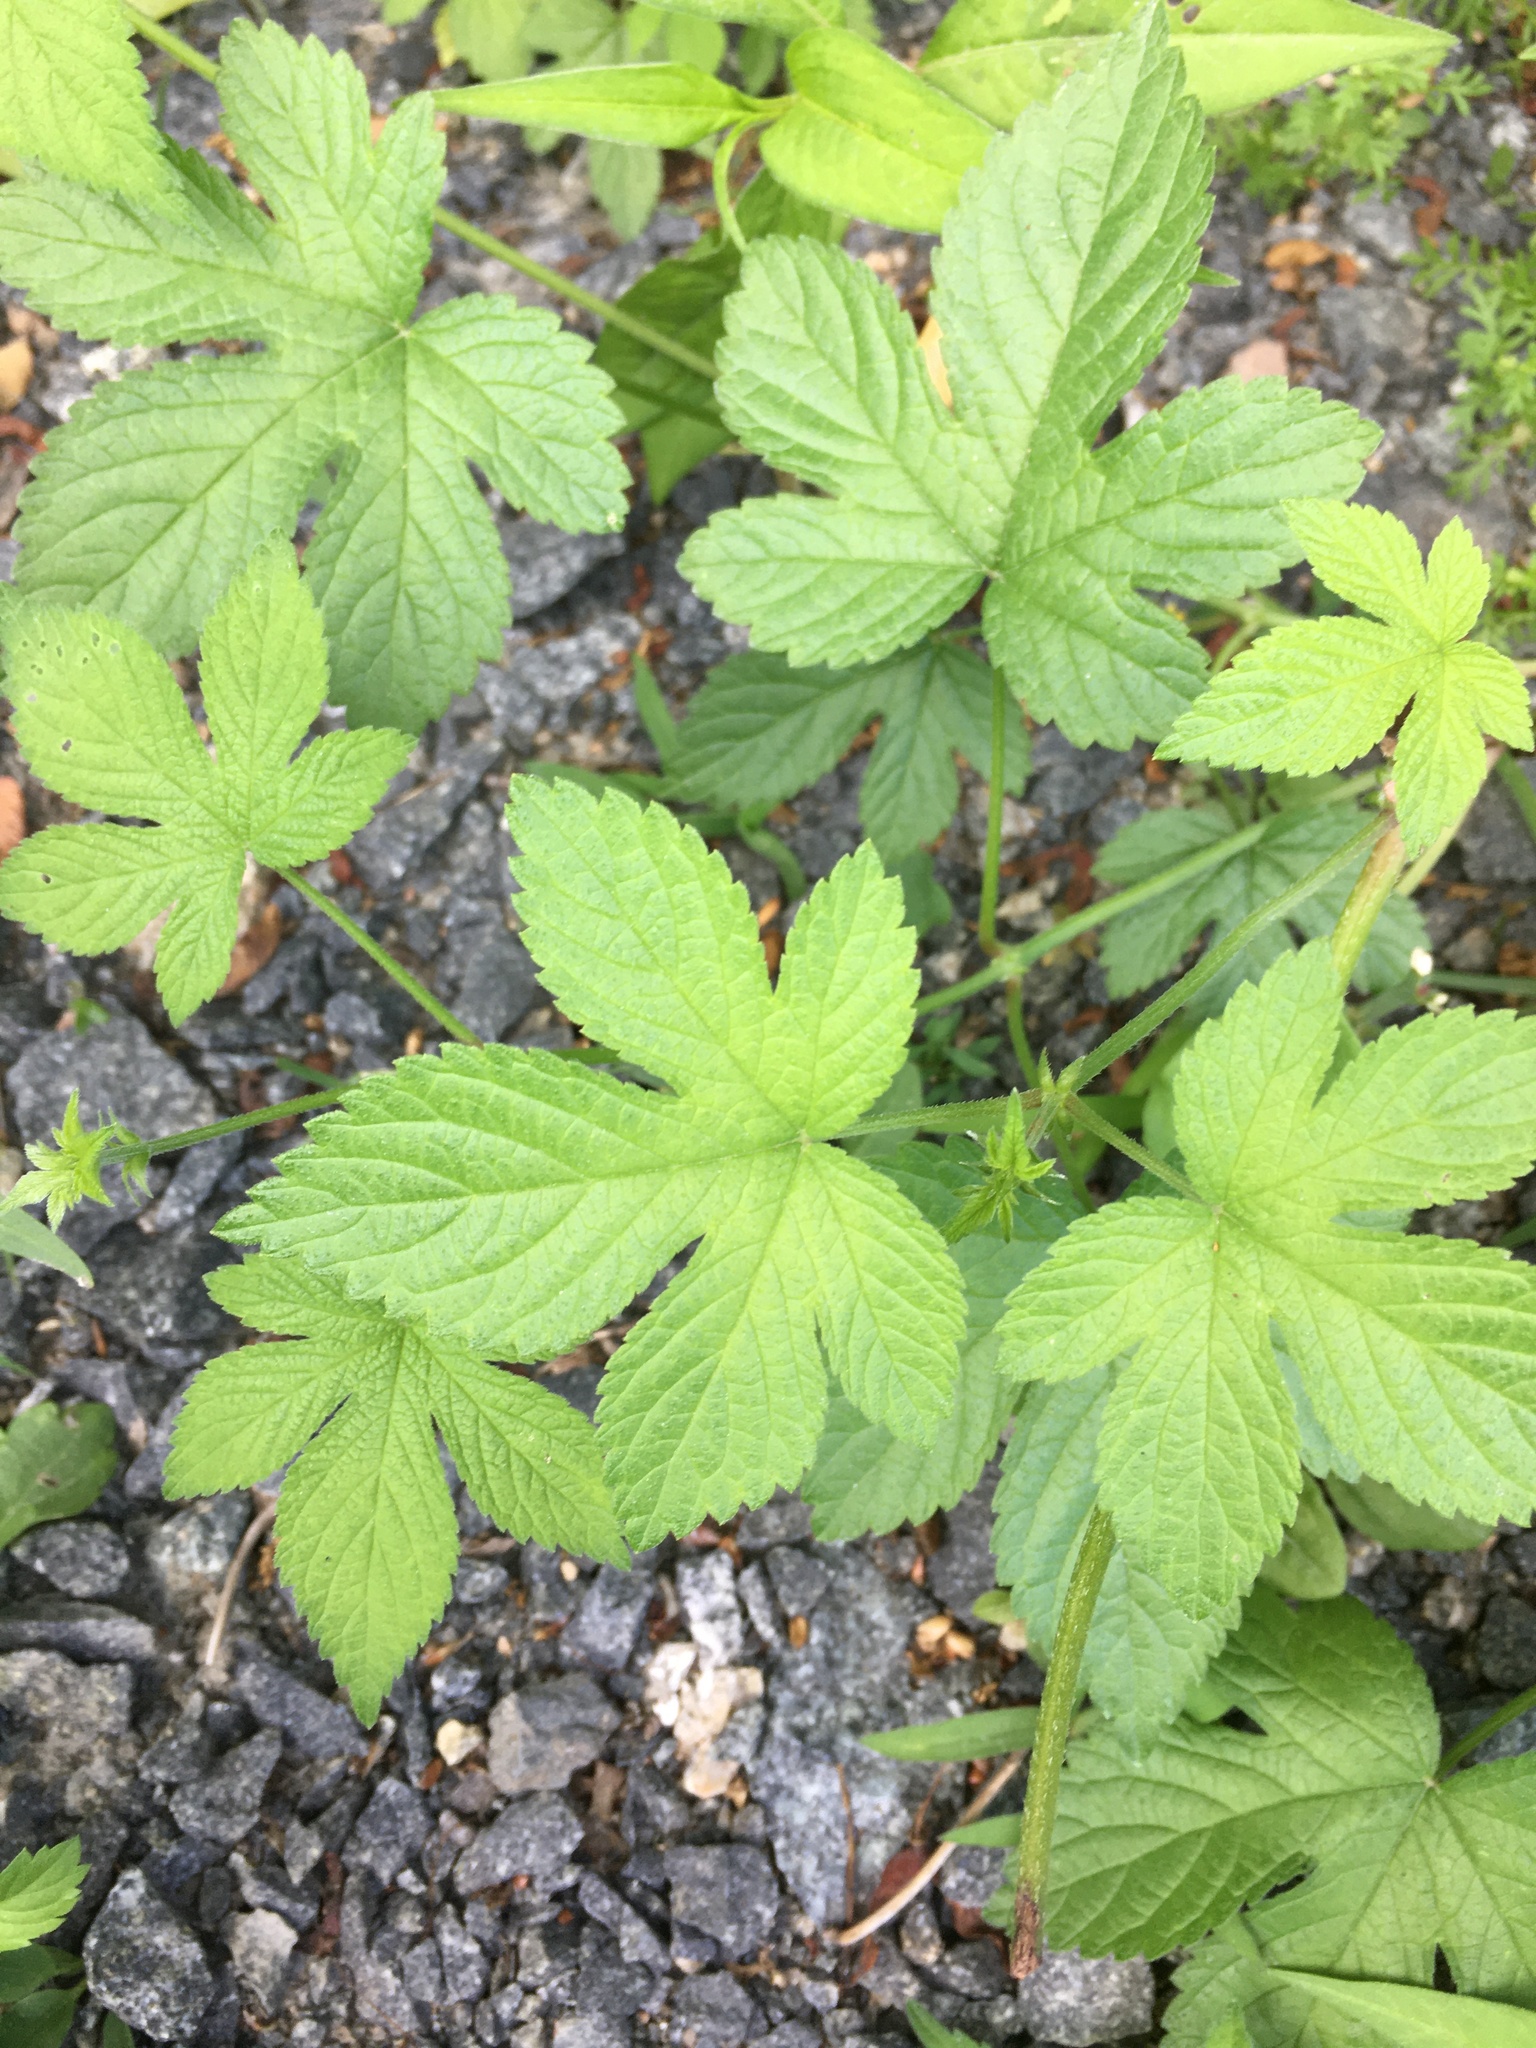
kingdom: Plantae
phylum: Tracheophyta
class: Magnoliopsida
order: Rosales
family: Cannabaceae
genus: Humulus
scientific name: Humulus scandens
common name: Japanese hop
